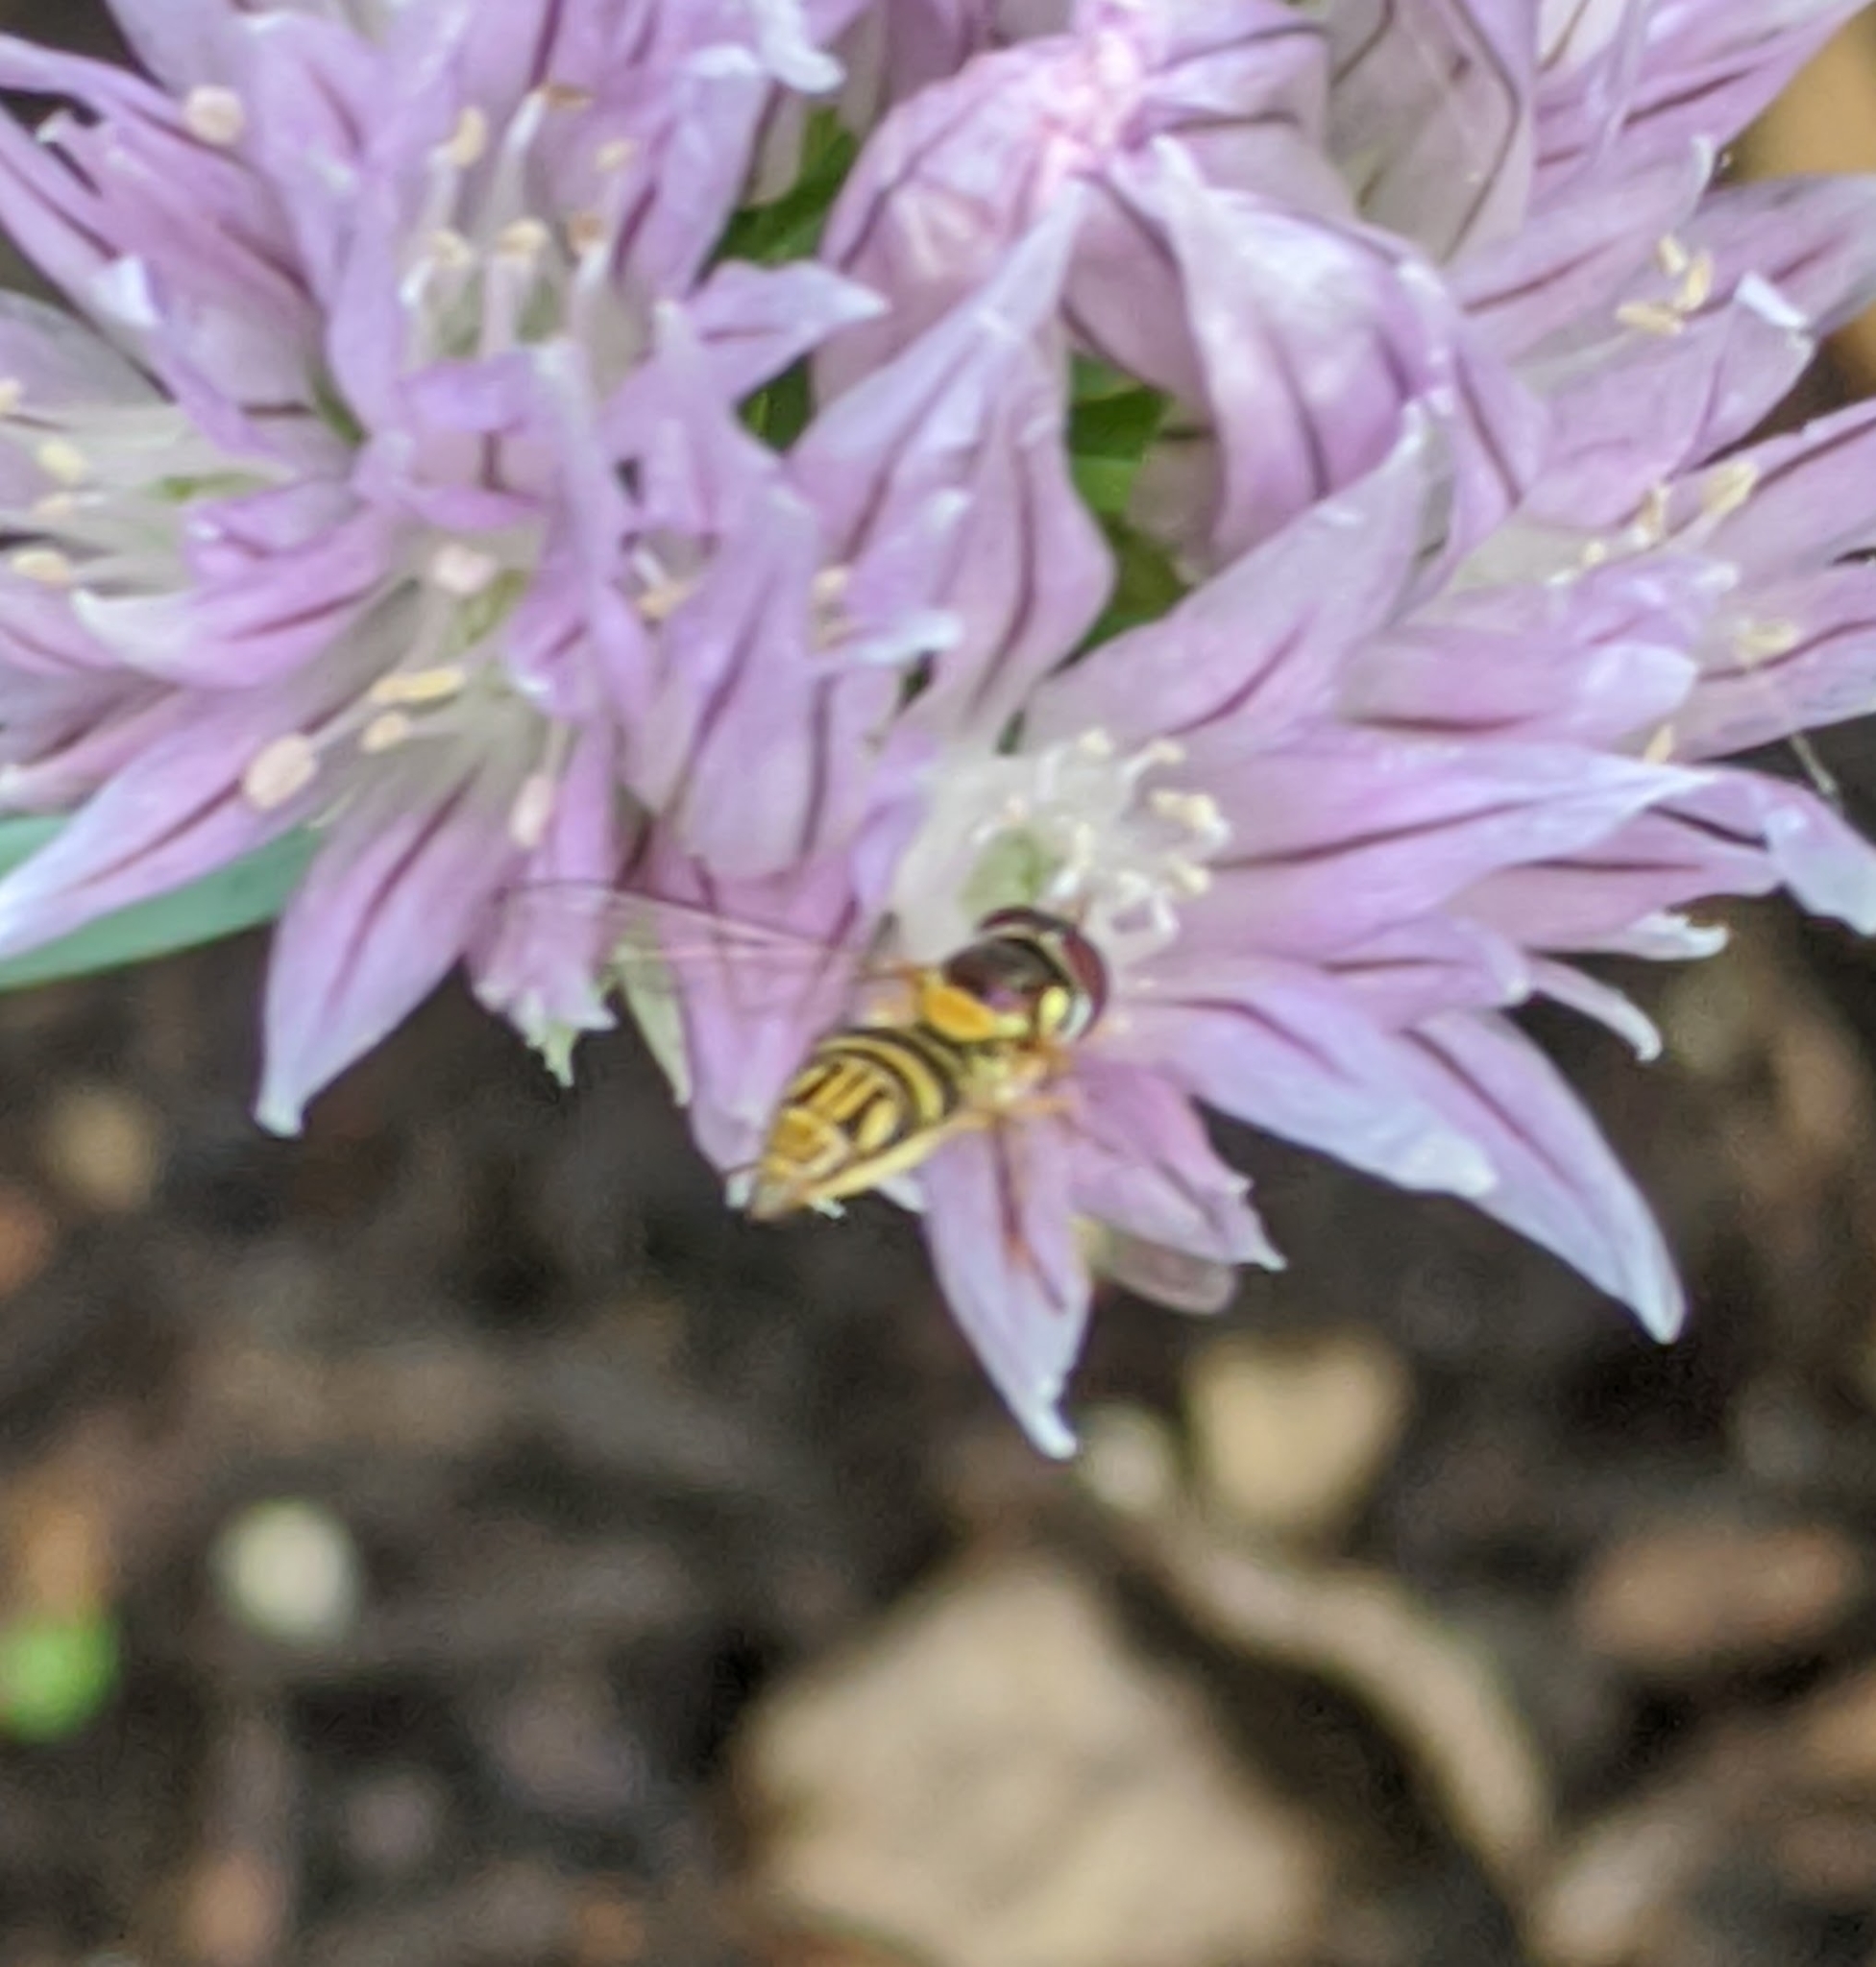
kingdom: Animalia
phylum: Arthropoda
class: Insecta
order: Diptera
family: Syrphidae
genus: Allograpta
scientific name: Allograpta obliqua
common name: Common oblique syrphid
